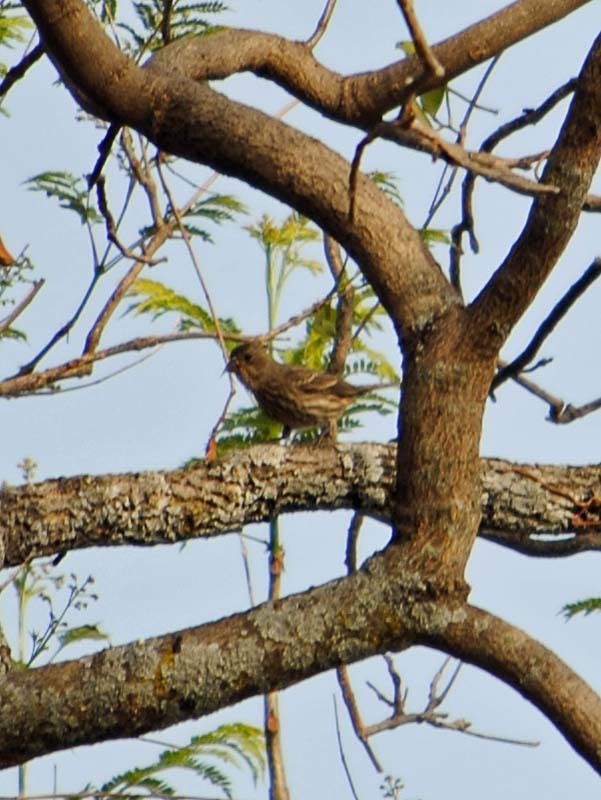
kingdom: Animalia
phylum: Chordata
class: Aves
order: Passeriformes
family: Fringillidae
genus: Haemorhous
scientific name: Haemorhous mexicanus
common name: House finch
